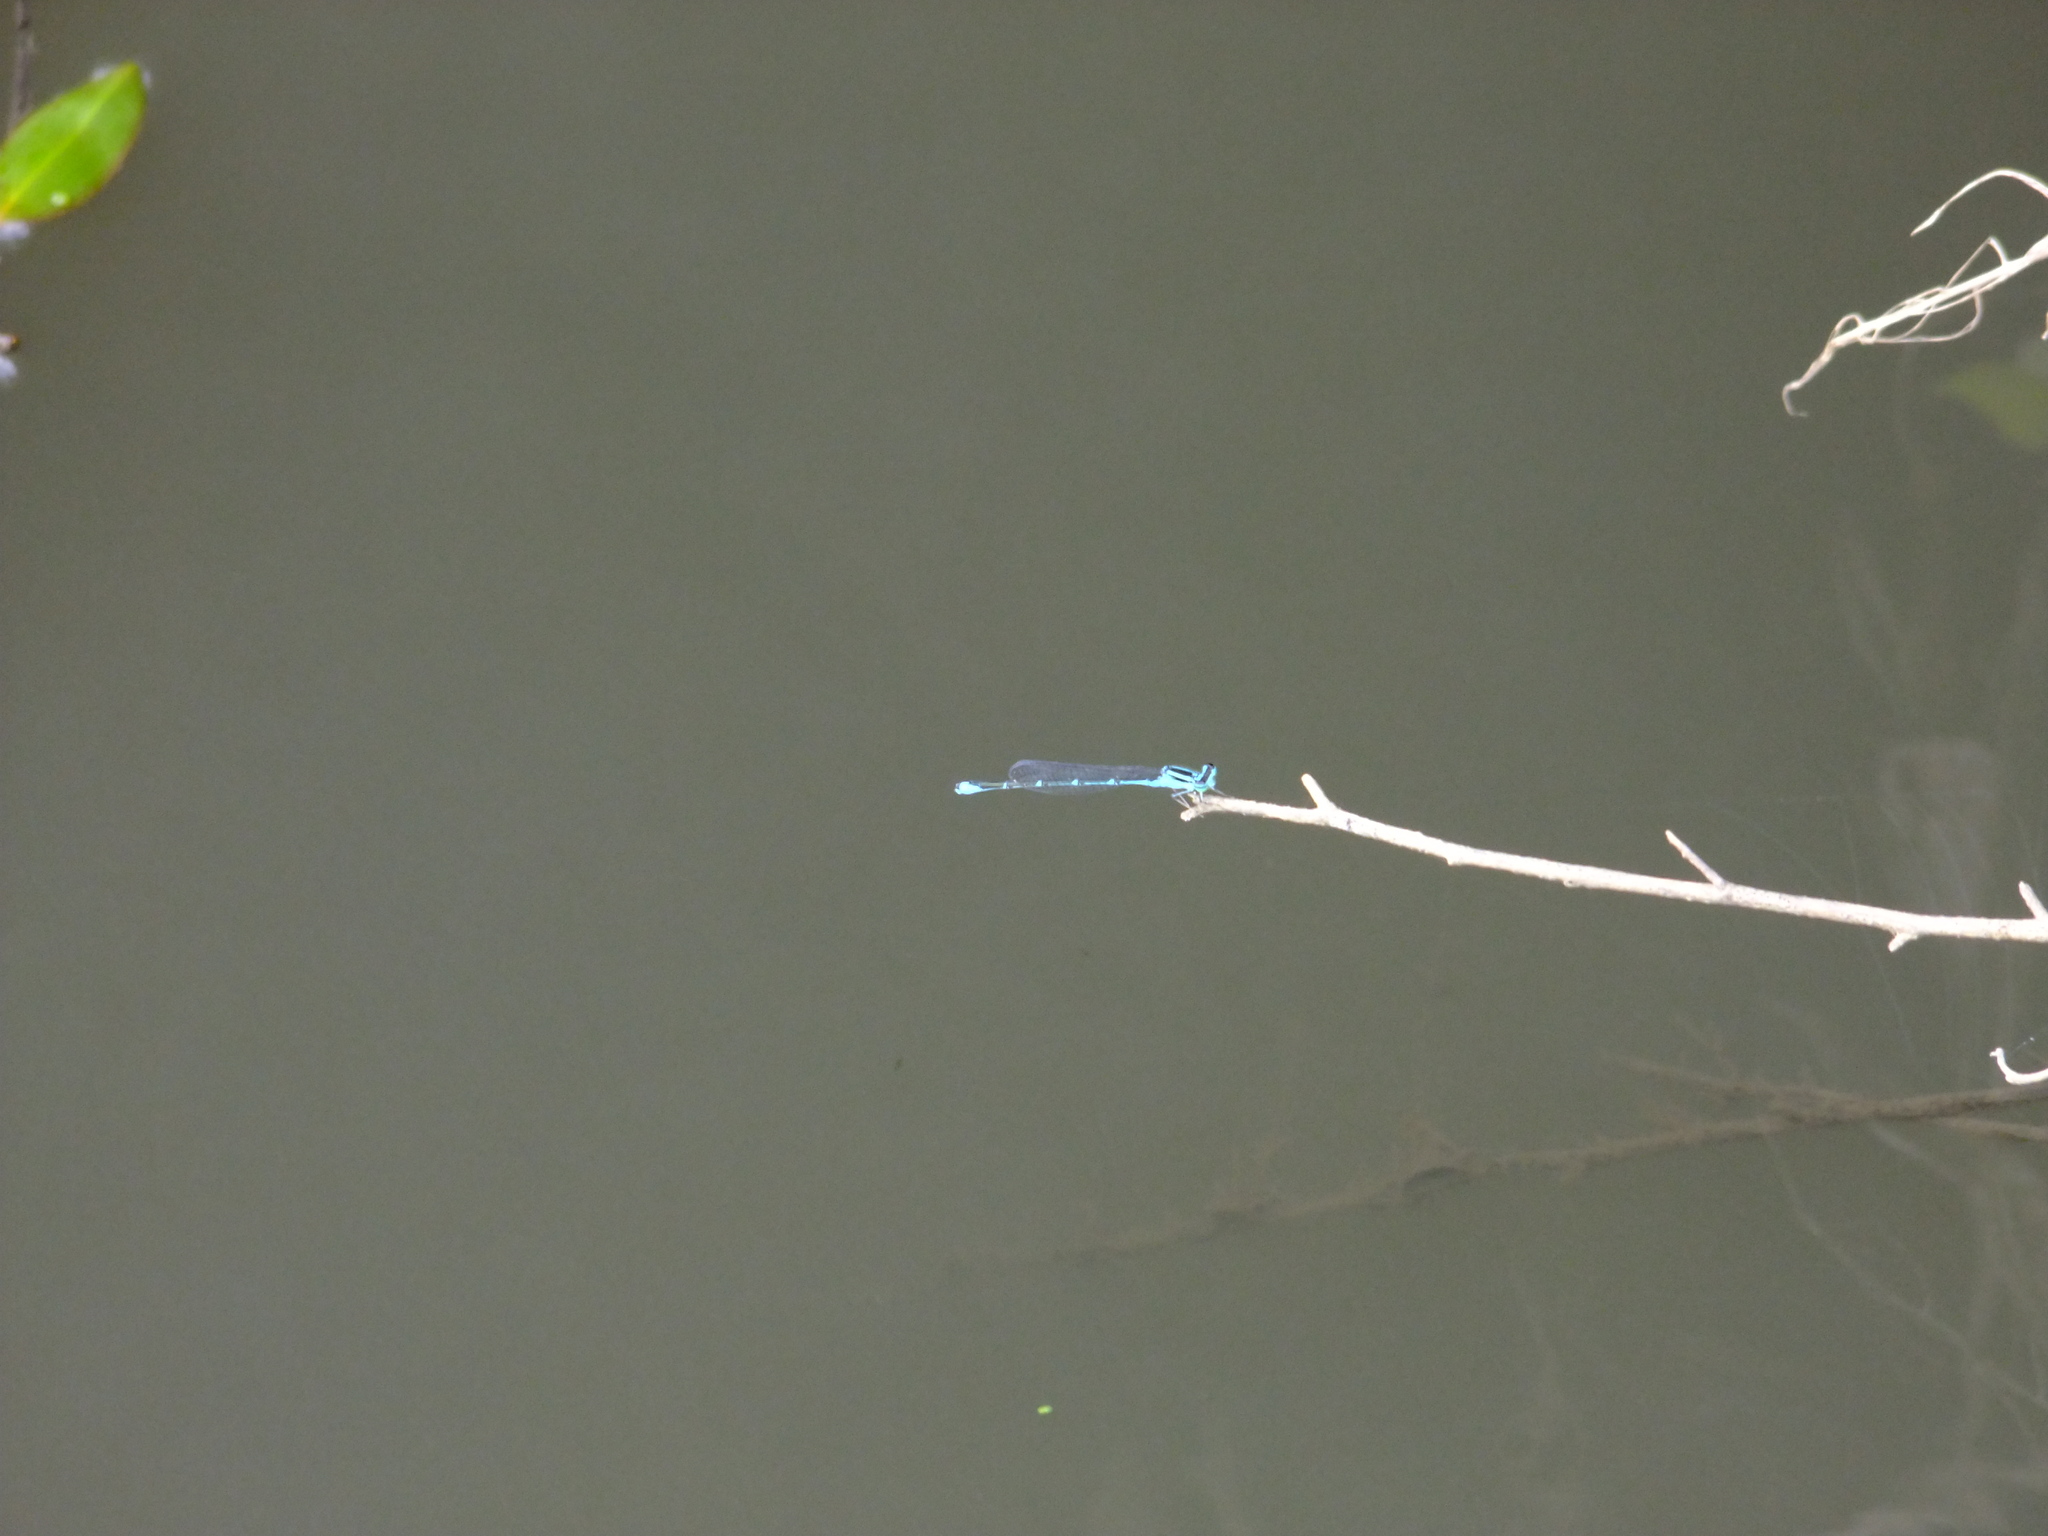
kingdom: Animalia
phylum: Arthropoda
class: Insecta
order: Odonata
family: Coenagrionidae
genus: Enallagma
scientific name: Enallagma exsulans
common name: Stream bluet
